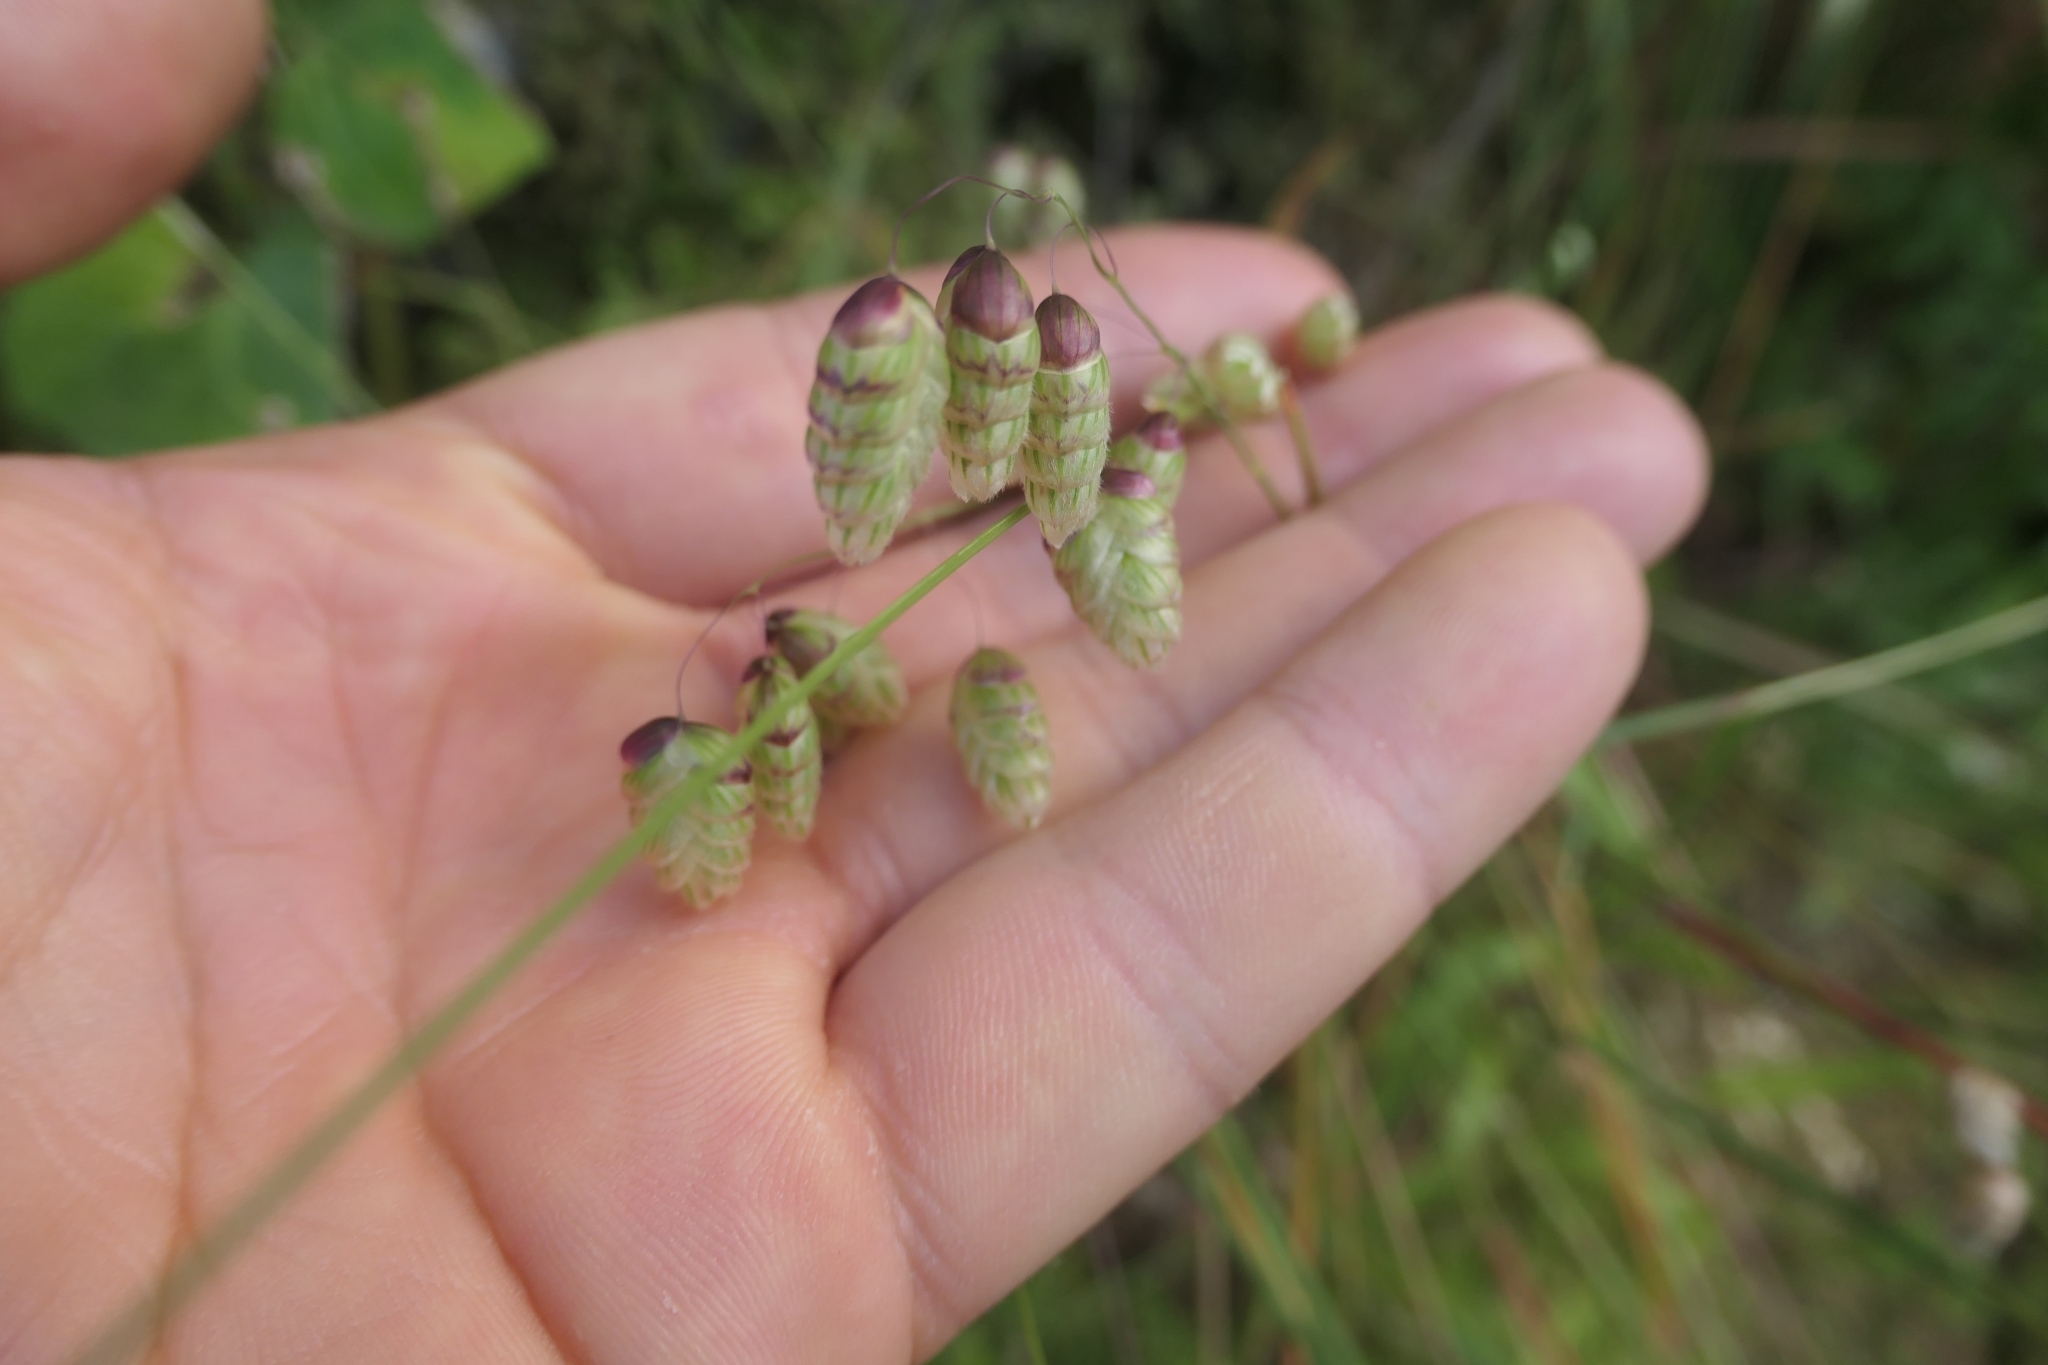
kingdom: Plantae
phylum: Tracheophyta
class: Liliopsida
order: Poales
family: Poaceae
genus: Briza
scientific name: Briza maxima
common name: Big quakinggrass
